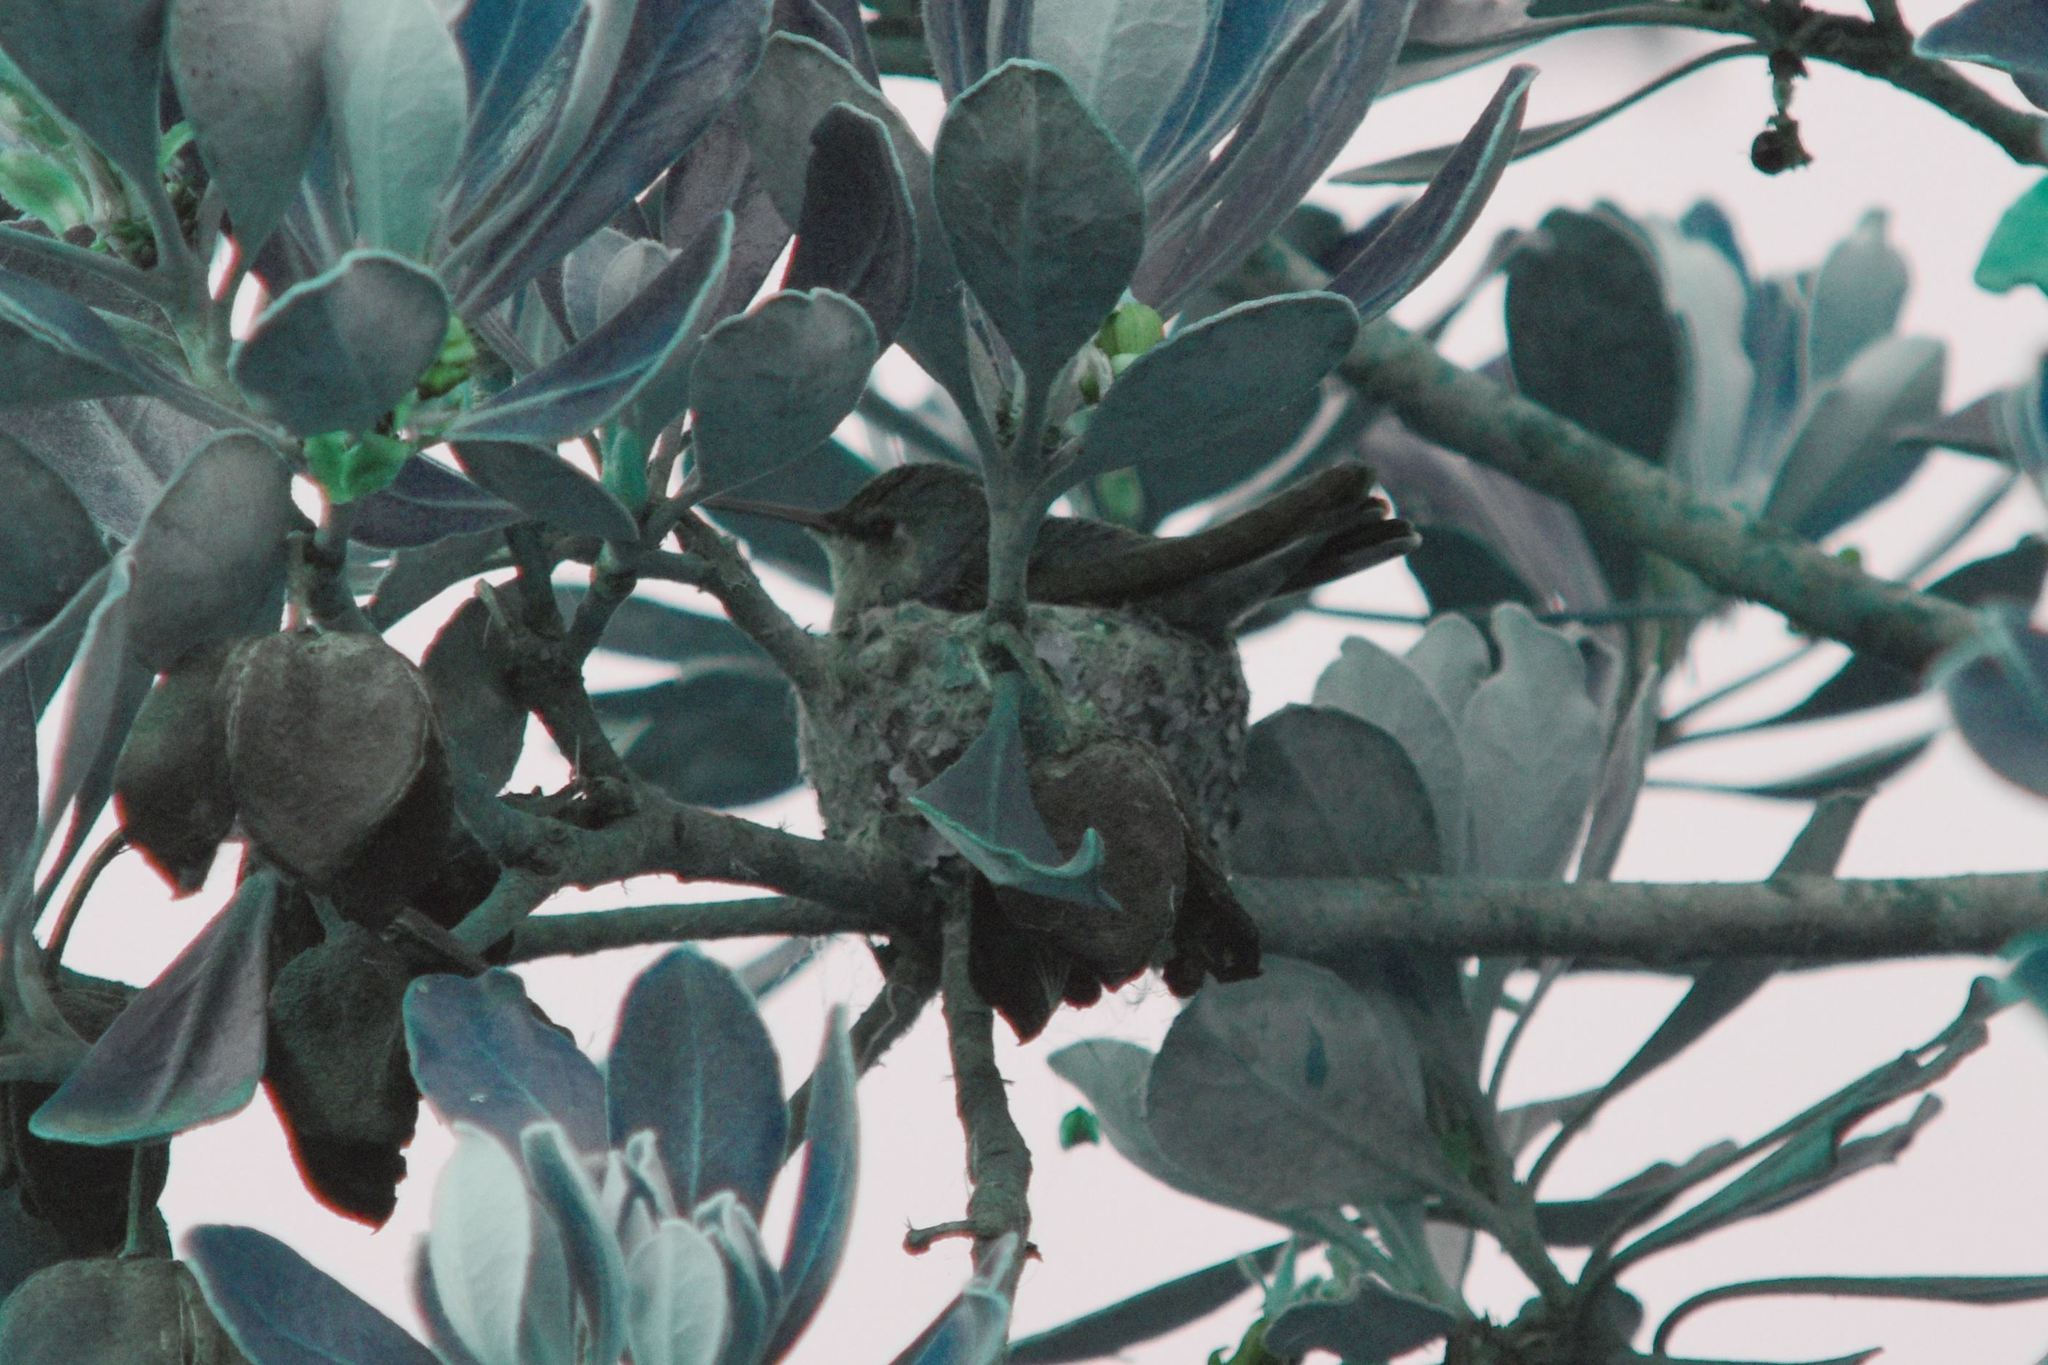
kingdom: Animalia
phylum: Chordata
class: Aves
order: Apodiformes
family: Trochilidae
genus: Calypte
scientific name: Calypte anna
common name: Anna's hummingbird
